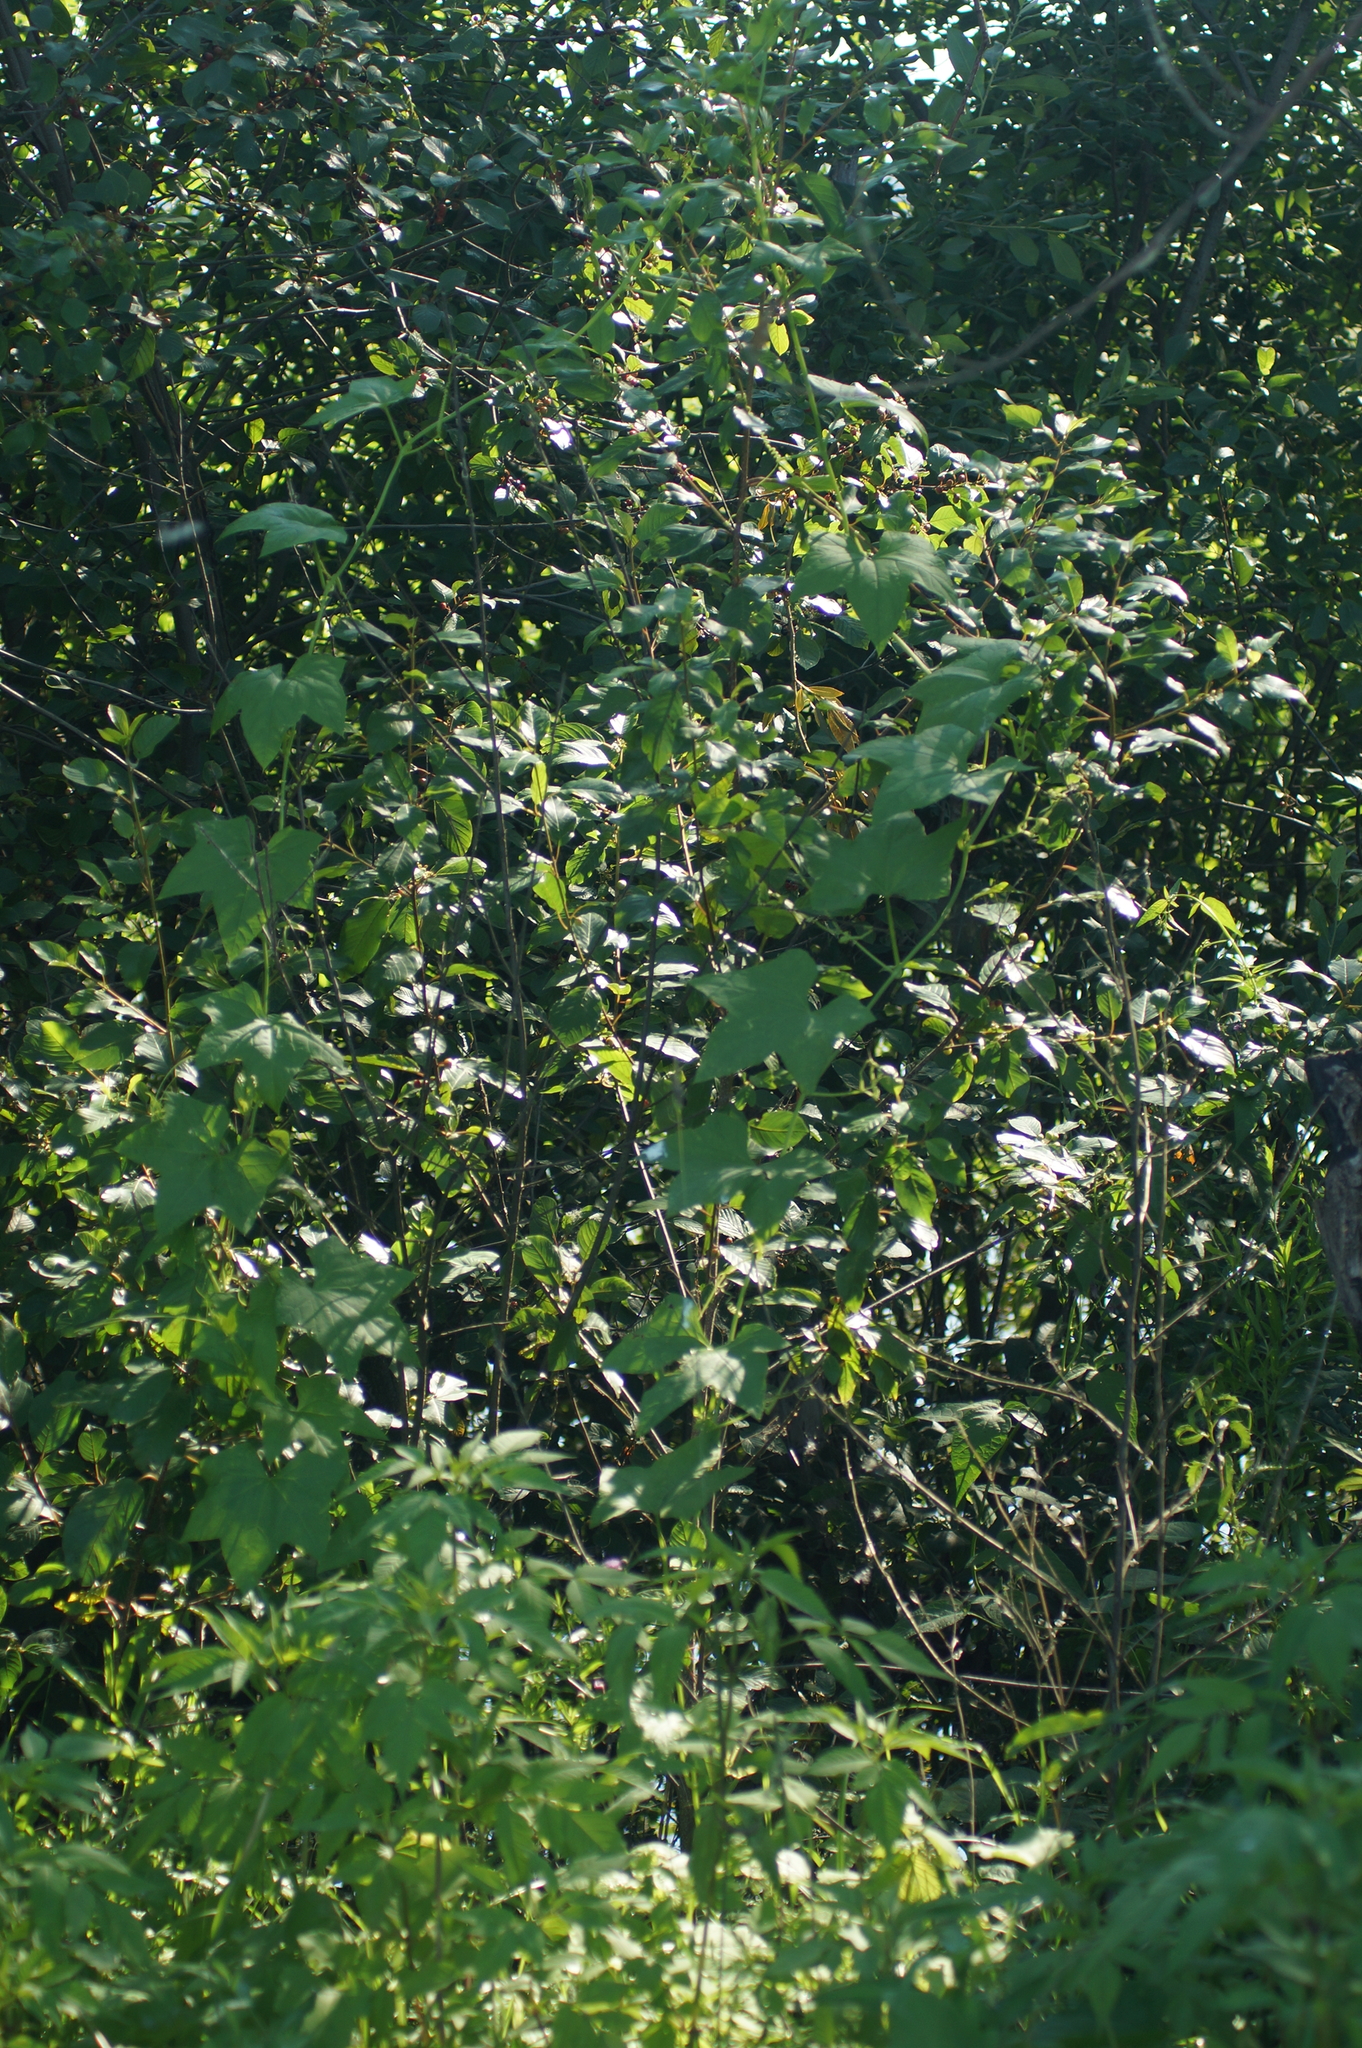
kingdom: Plantae
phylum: Tracheophyta
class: Magnoliopsida
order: Cucurbitales
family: Cucurbitaceae
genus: Echinocystis
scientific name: Echinocystis lobata
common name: Wild cucumber
